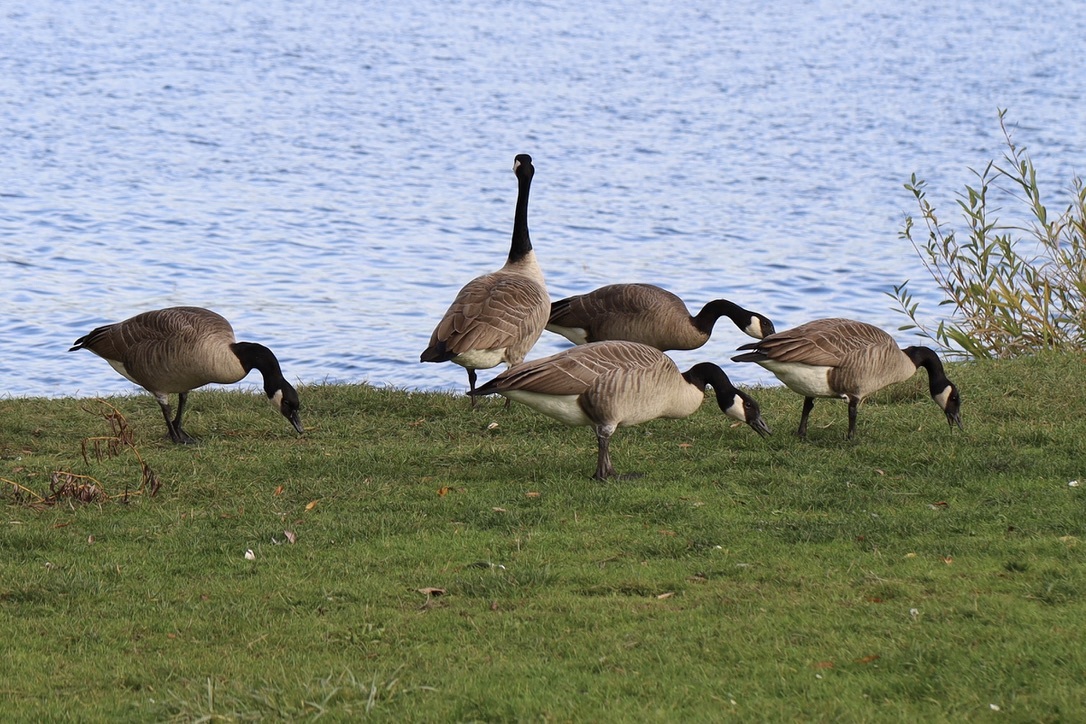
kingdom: Animalia
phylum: Chordata
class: Aves
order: Anseriformes
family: Anatidae
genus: Branta
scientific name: Branta canadensis
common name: Canada goose
